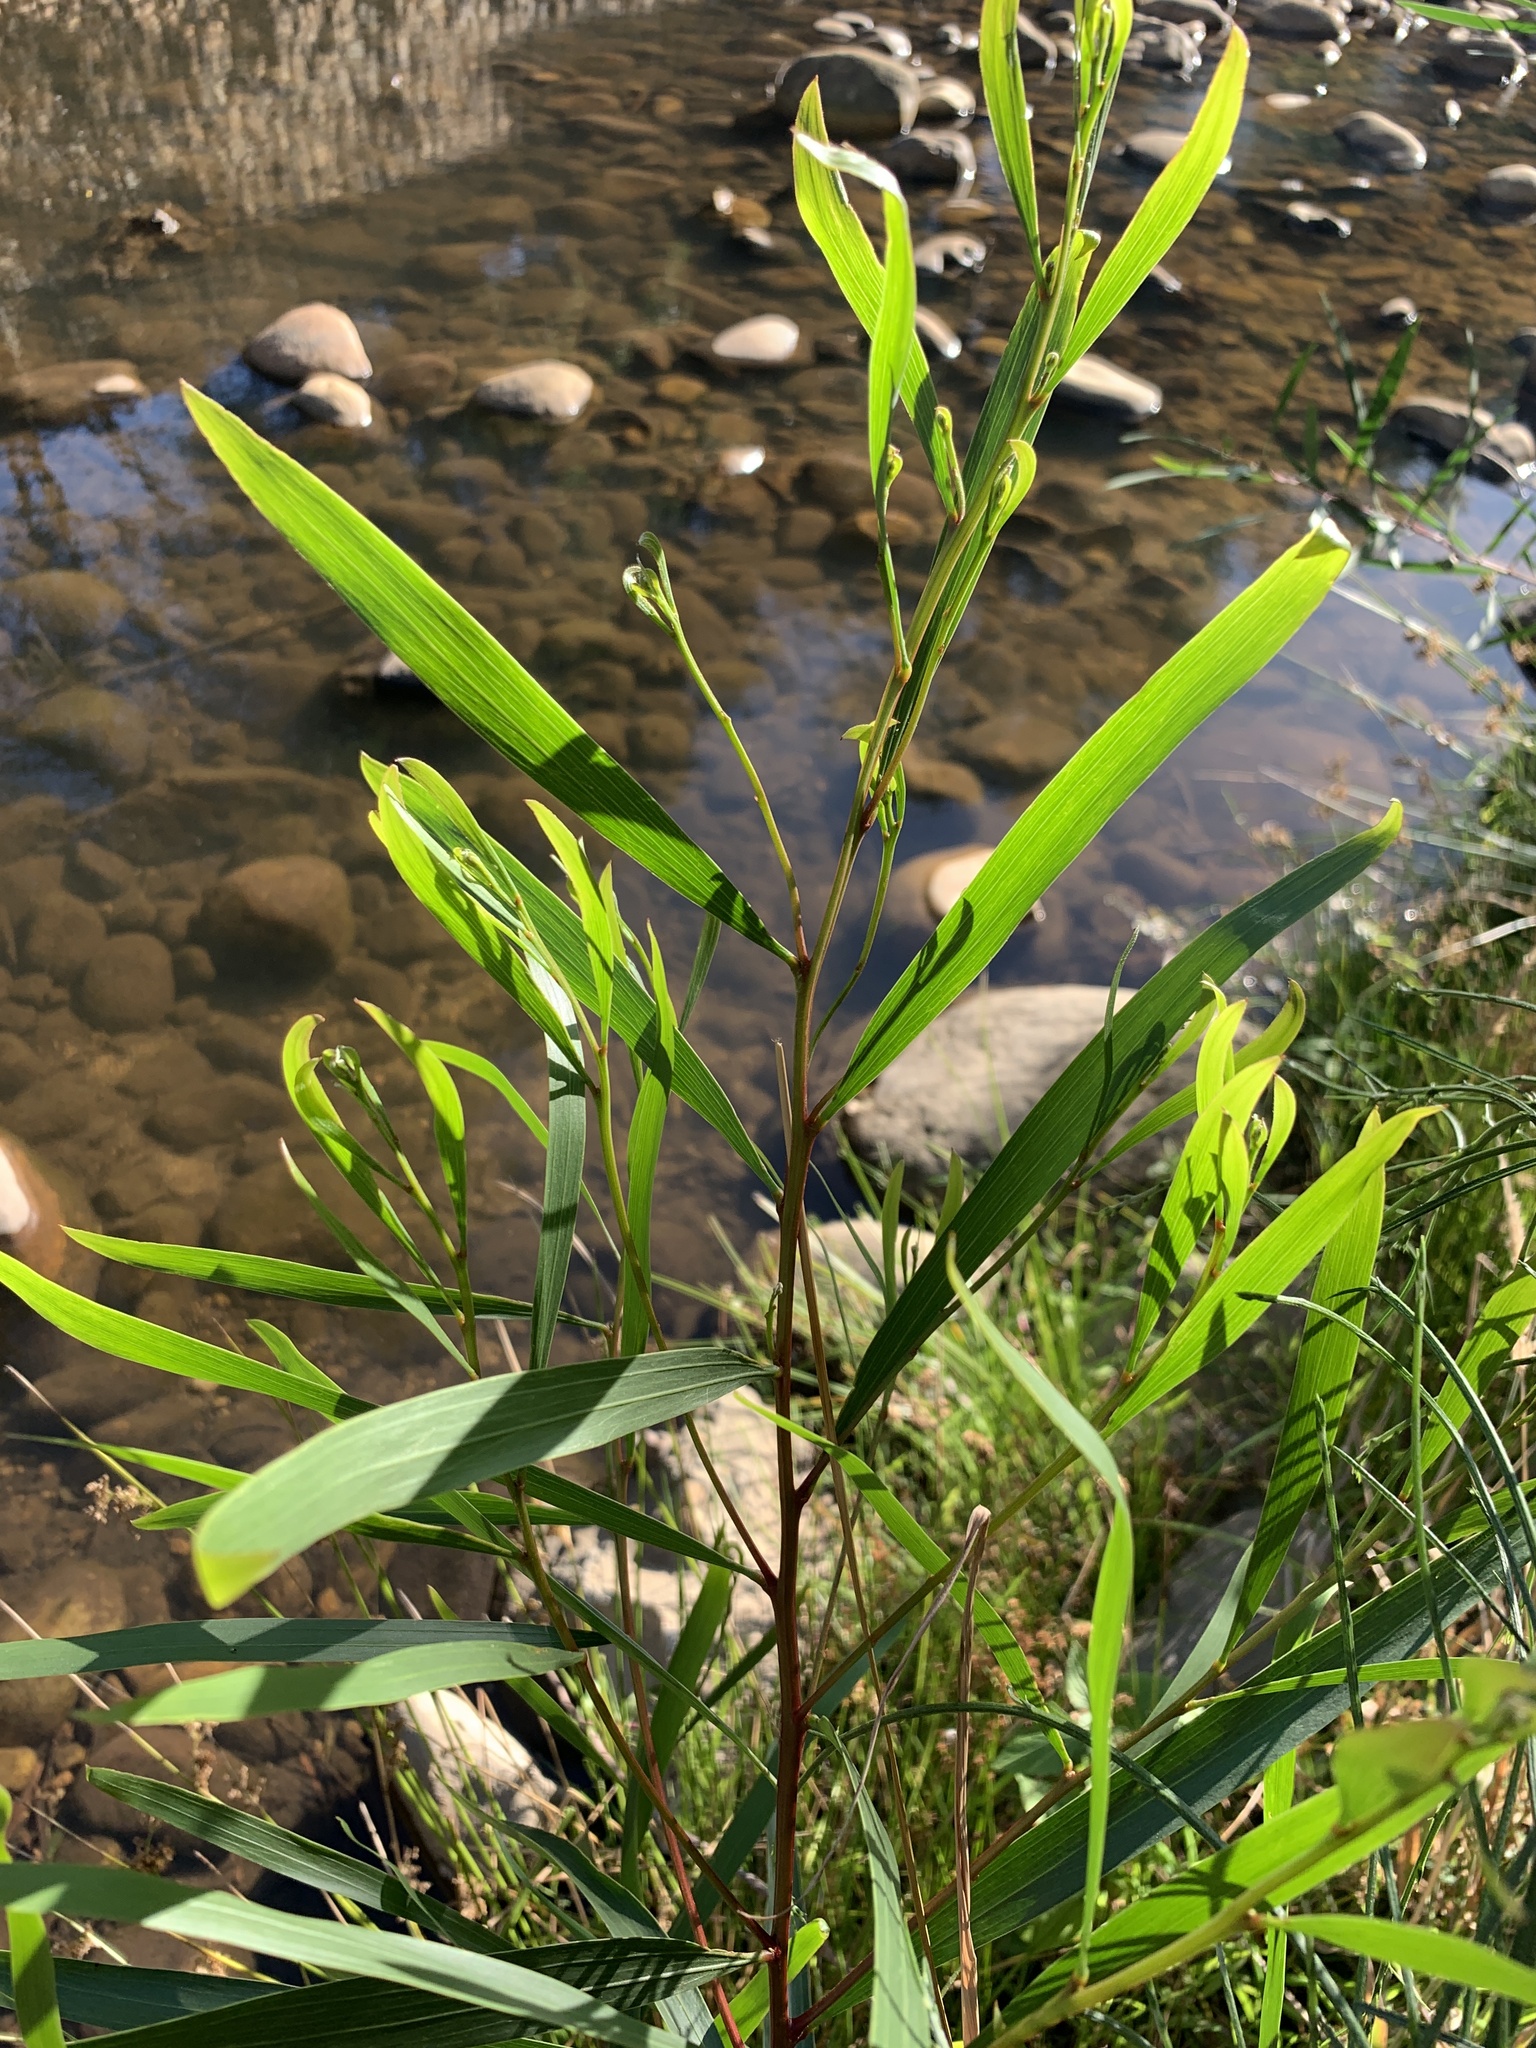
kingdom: Plantae
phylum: Tracheophyta
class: Magnoliopsida
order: Fabales
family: Fabaceae
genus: Acacia
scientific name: Acacia longifolia
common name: Sydney golden wattle
